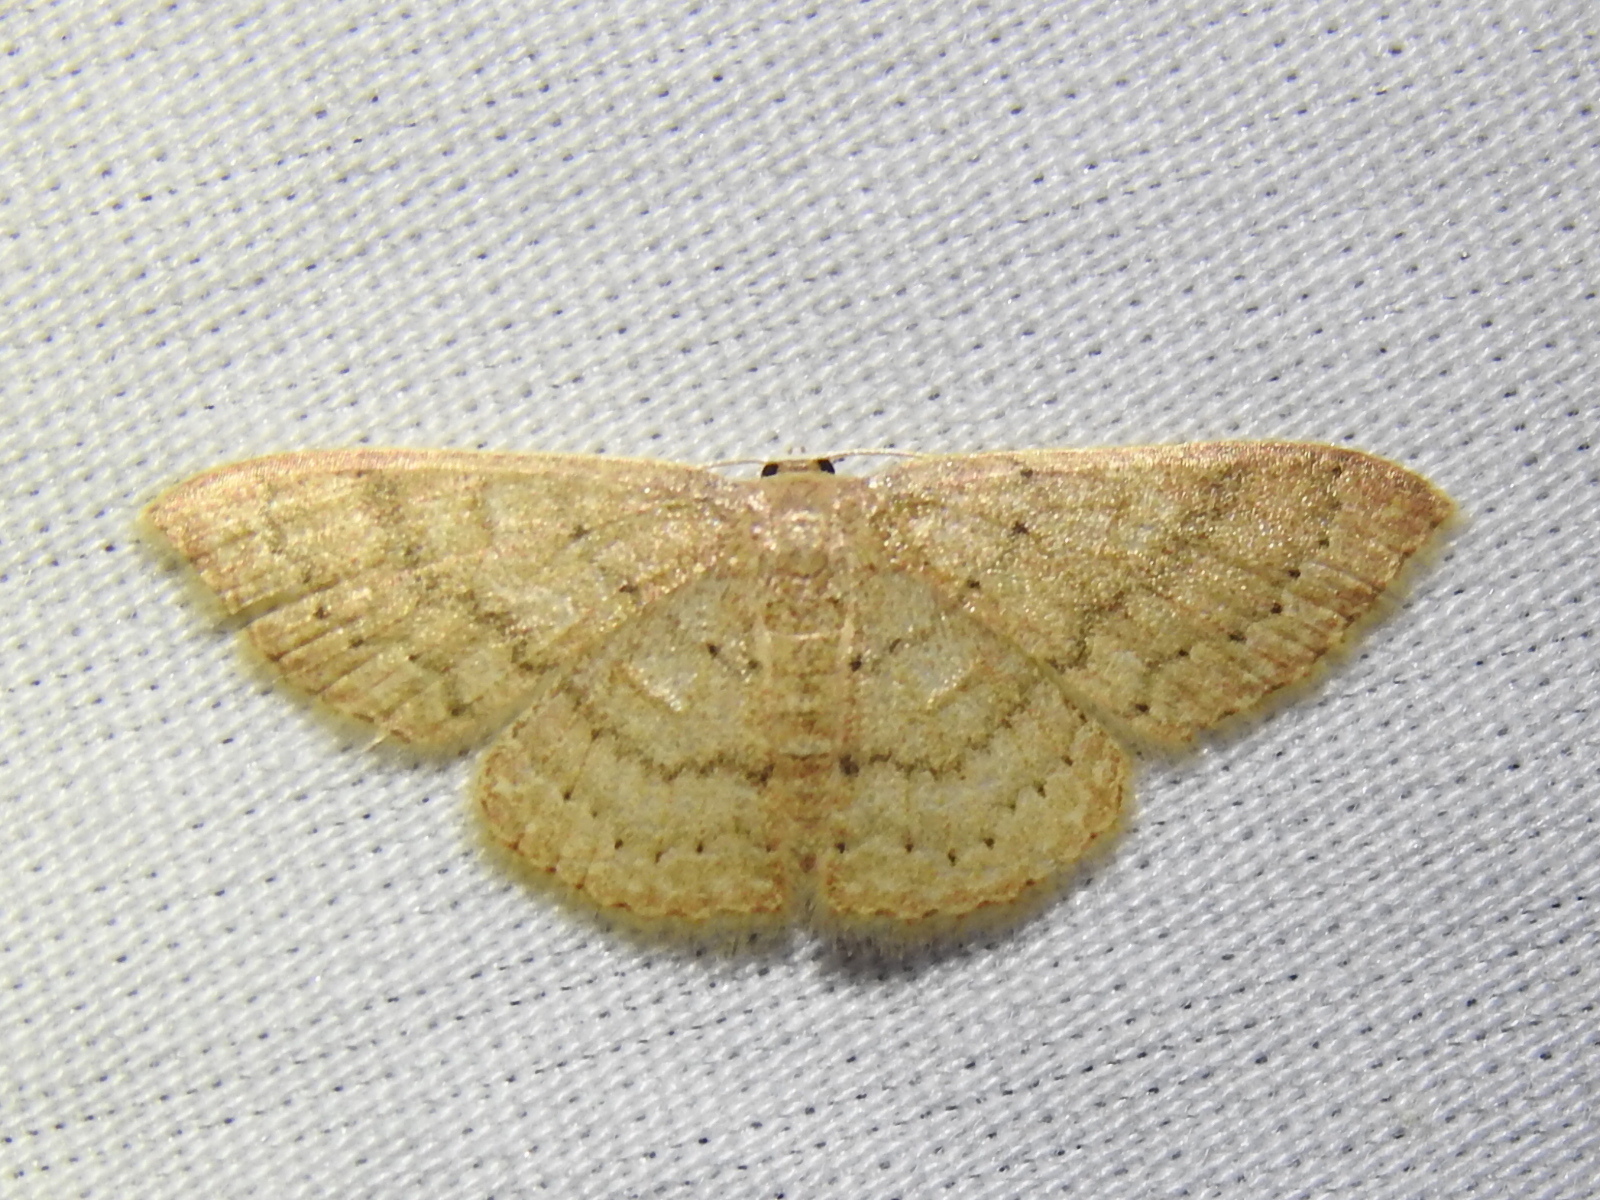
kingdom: Animalia
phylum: Arthropoda
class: Insecta
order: Lepidoptera
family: Geometridae
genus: Pleuroprucha
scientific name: Pleuroprucha insulsaria
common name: Common tan wave
